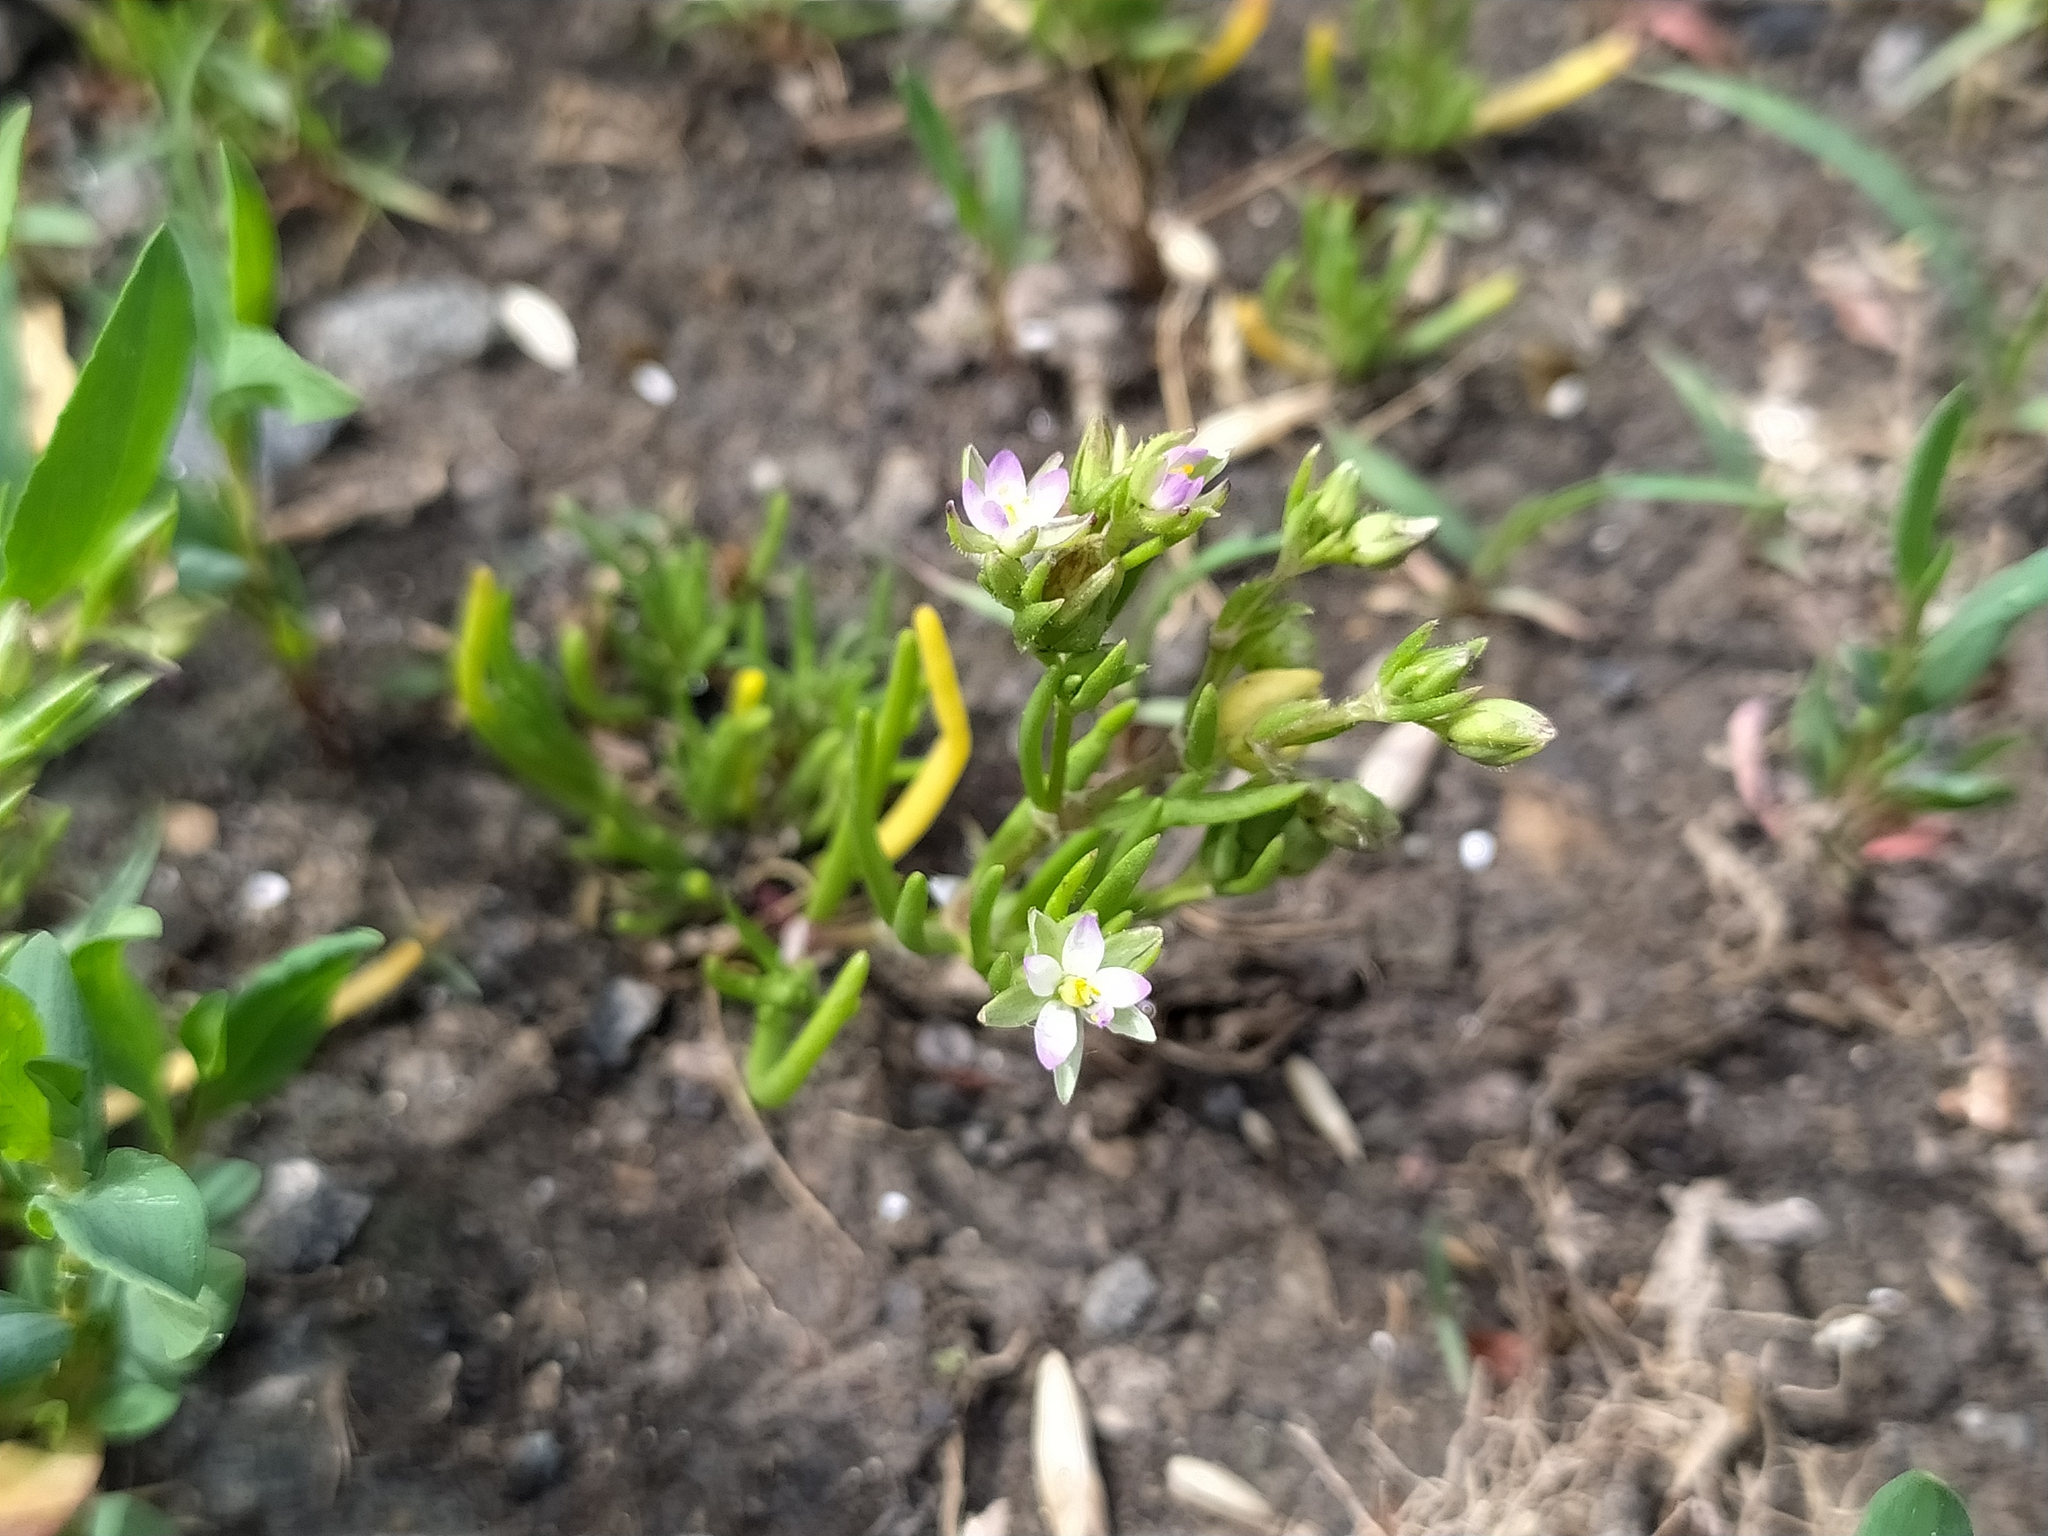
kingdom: Plantae
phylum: Tracheophyta
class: Magnoliopsida
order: Caryophyllales
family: Caryophyllaceae
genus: Spergularia
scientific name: Spergularia marina
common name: Lesser sea-spurrey
